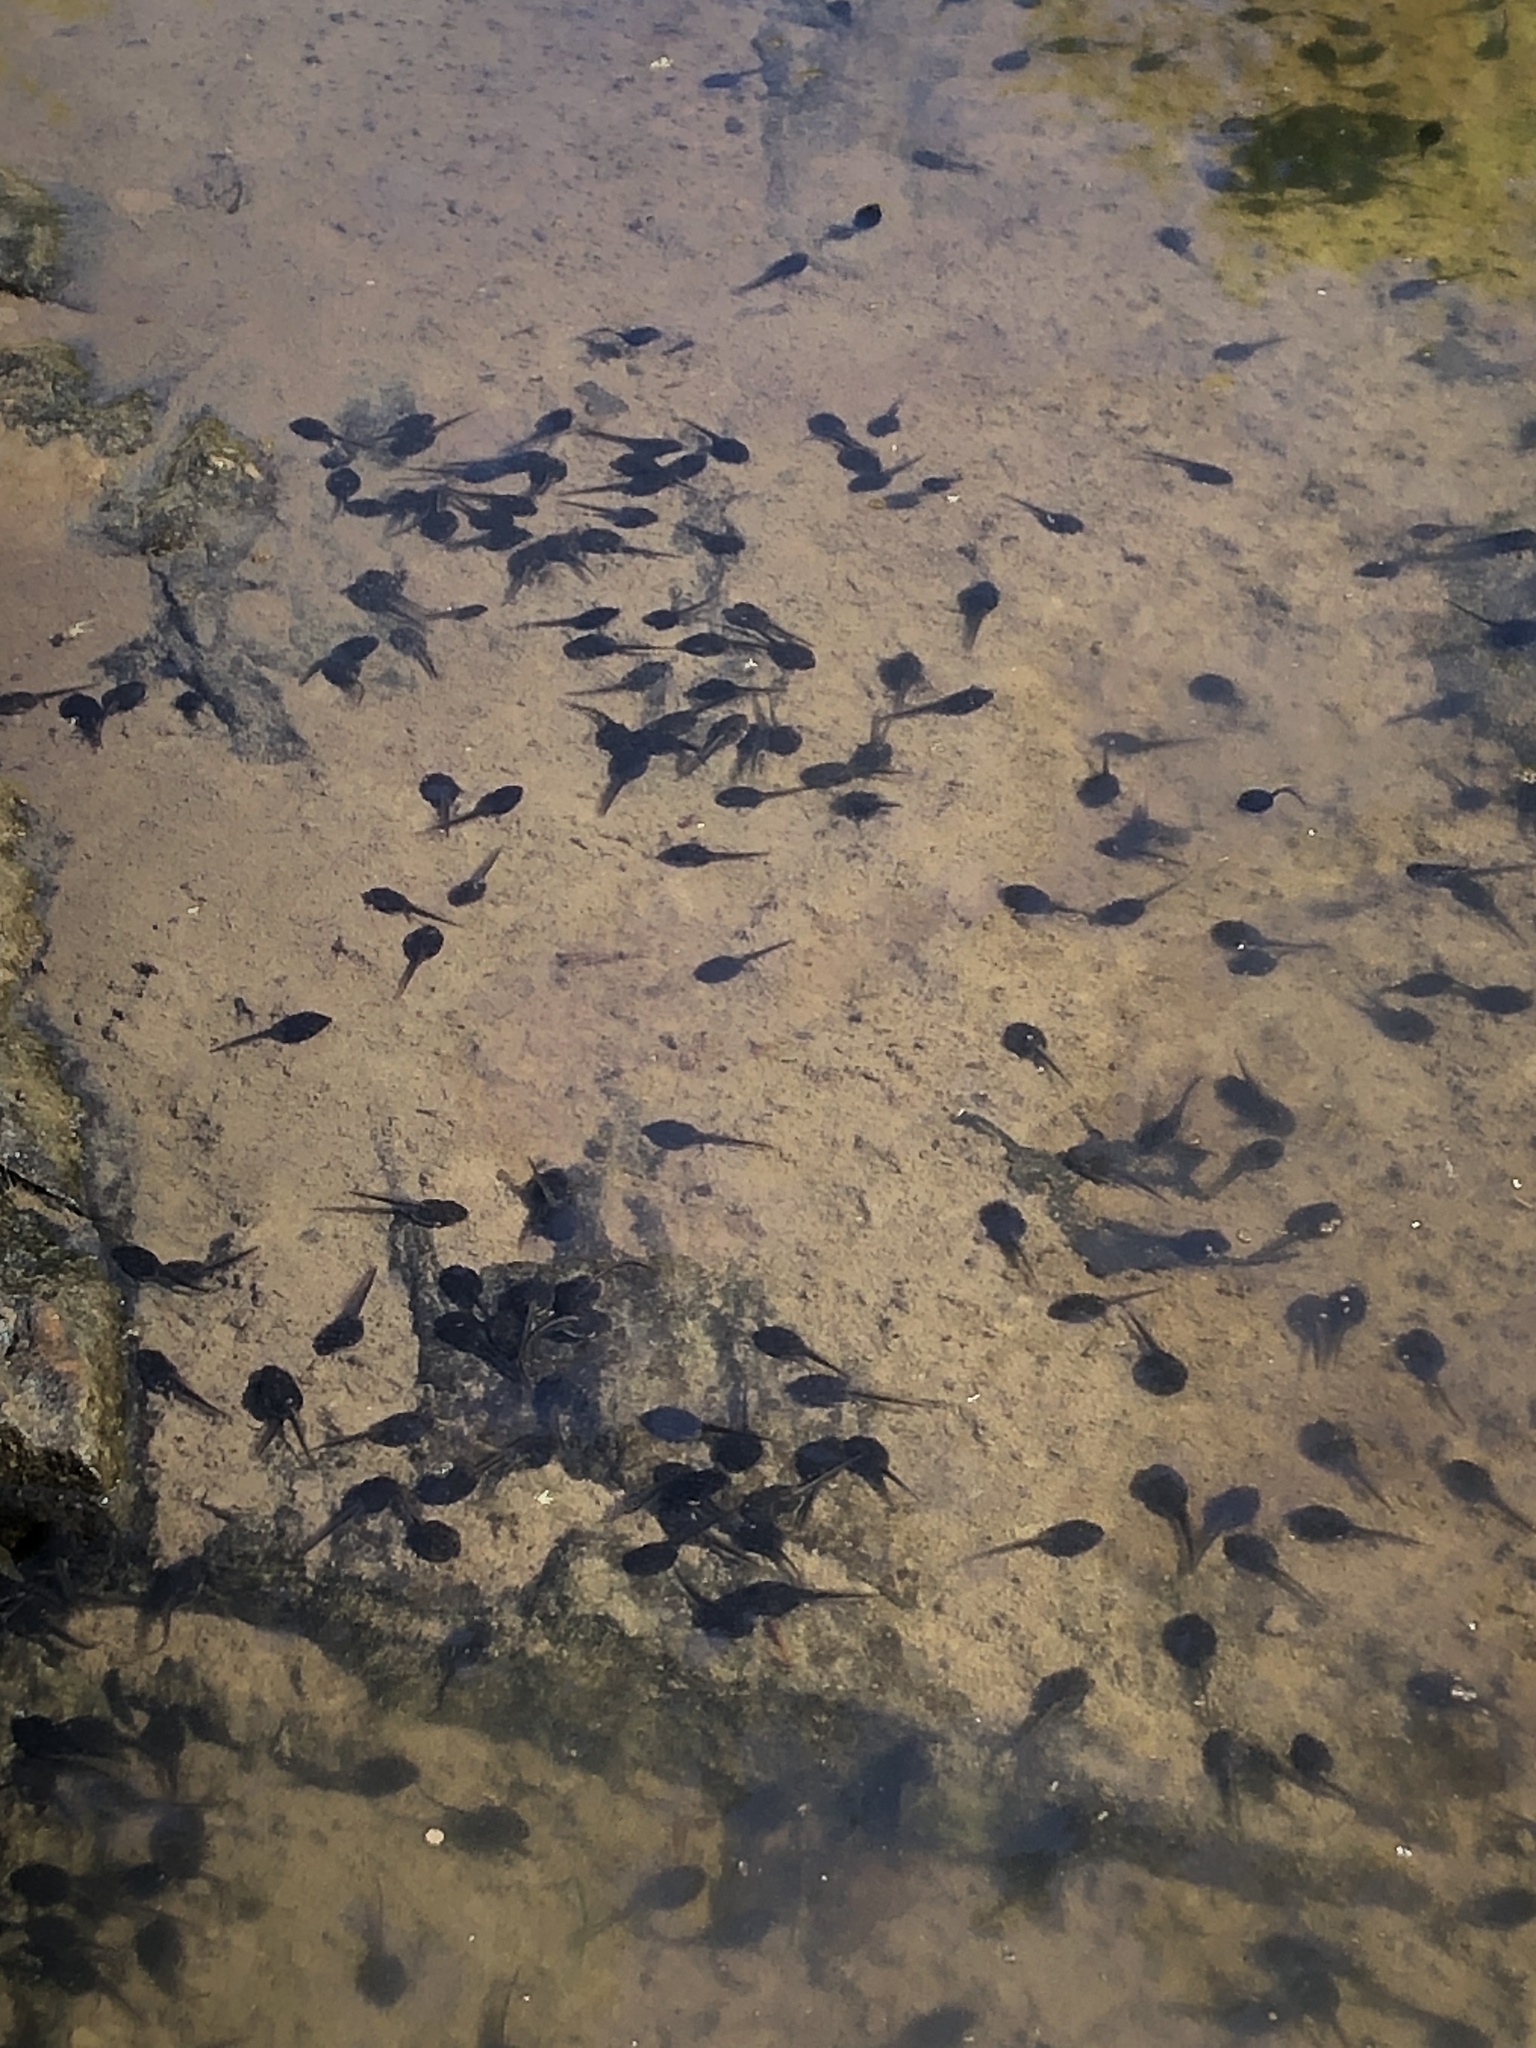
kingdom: Animalia
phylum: Chordata
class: Amphibia
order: Anura
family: Ranidae
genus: Lithobates
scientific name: Lithobates sylvaticus
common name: Wood frog
